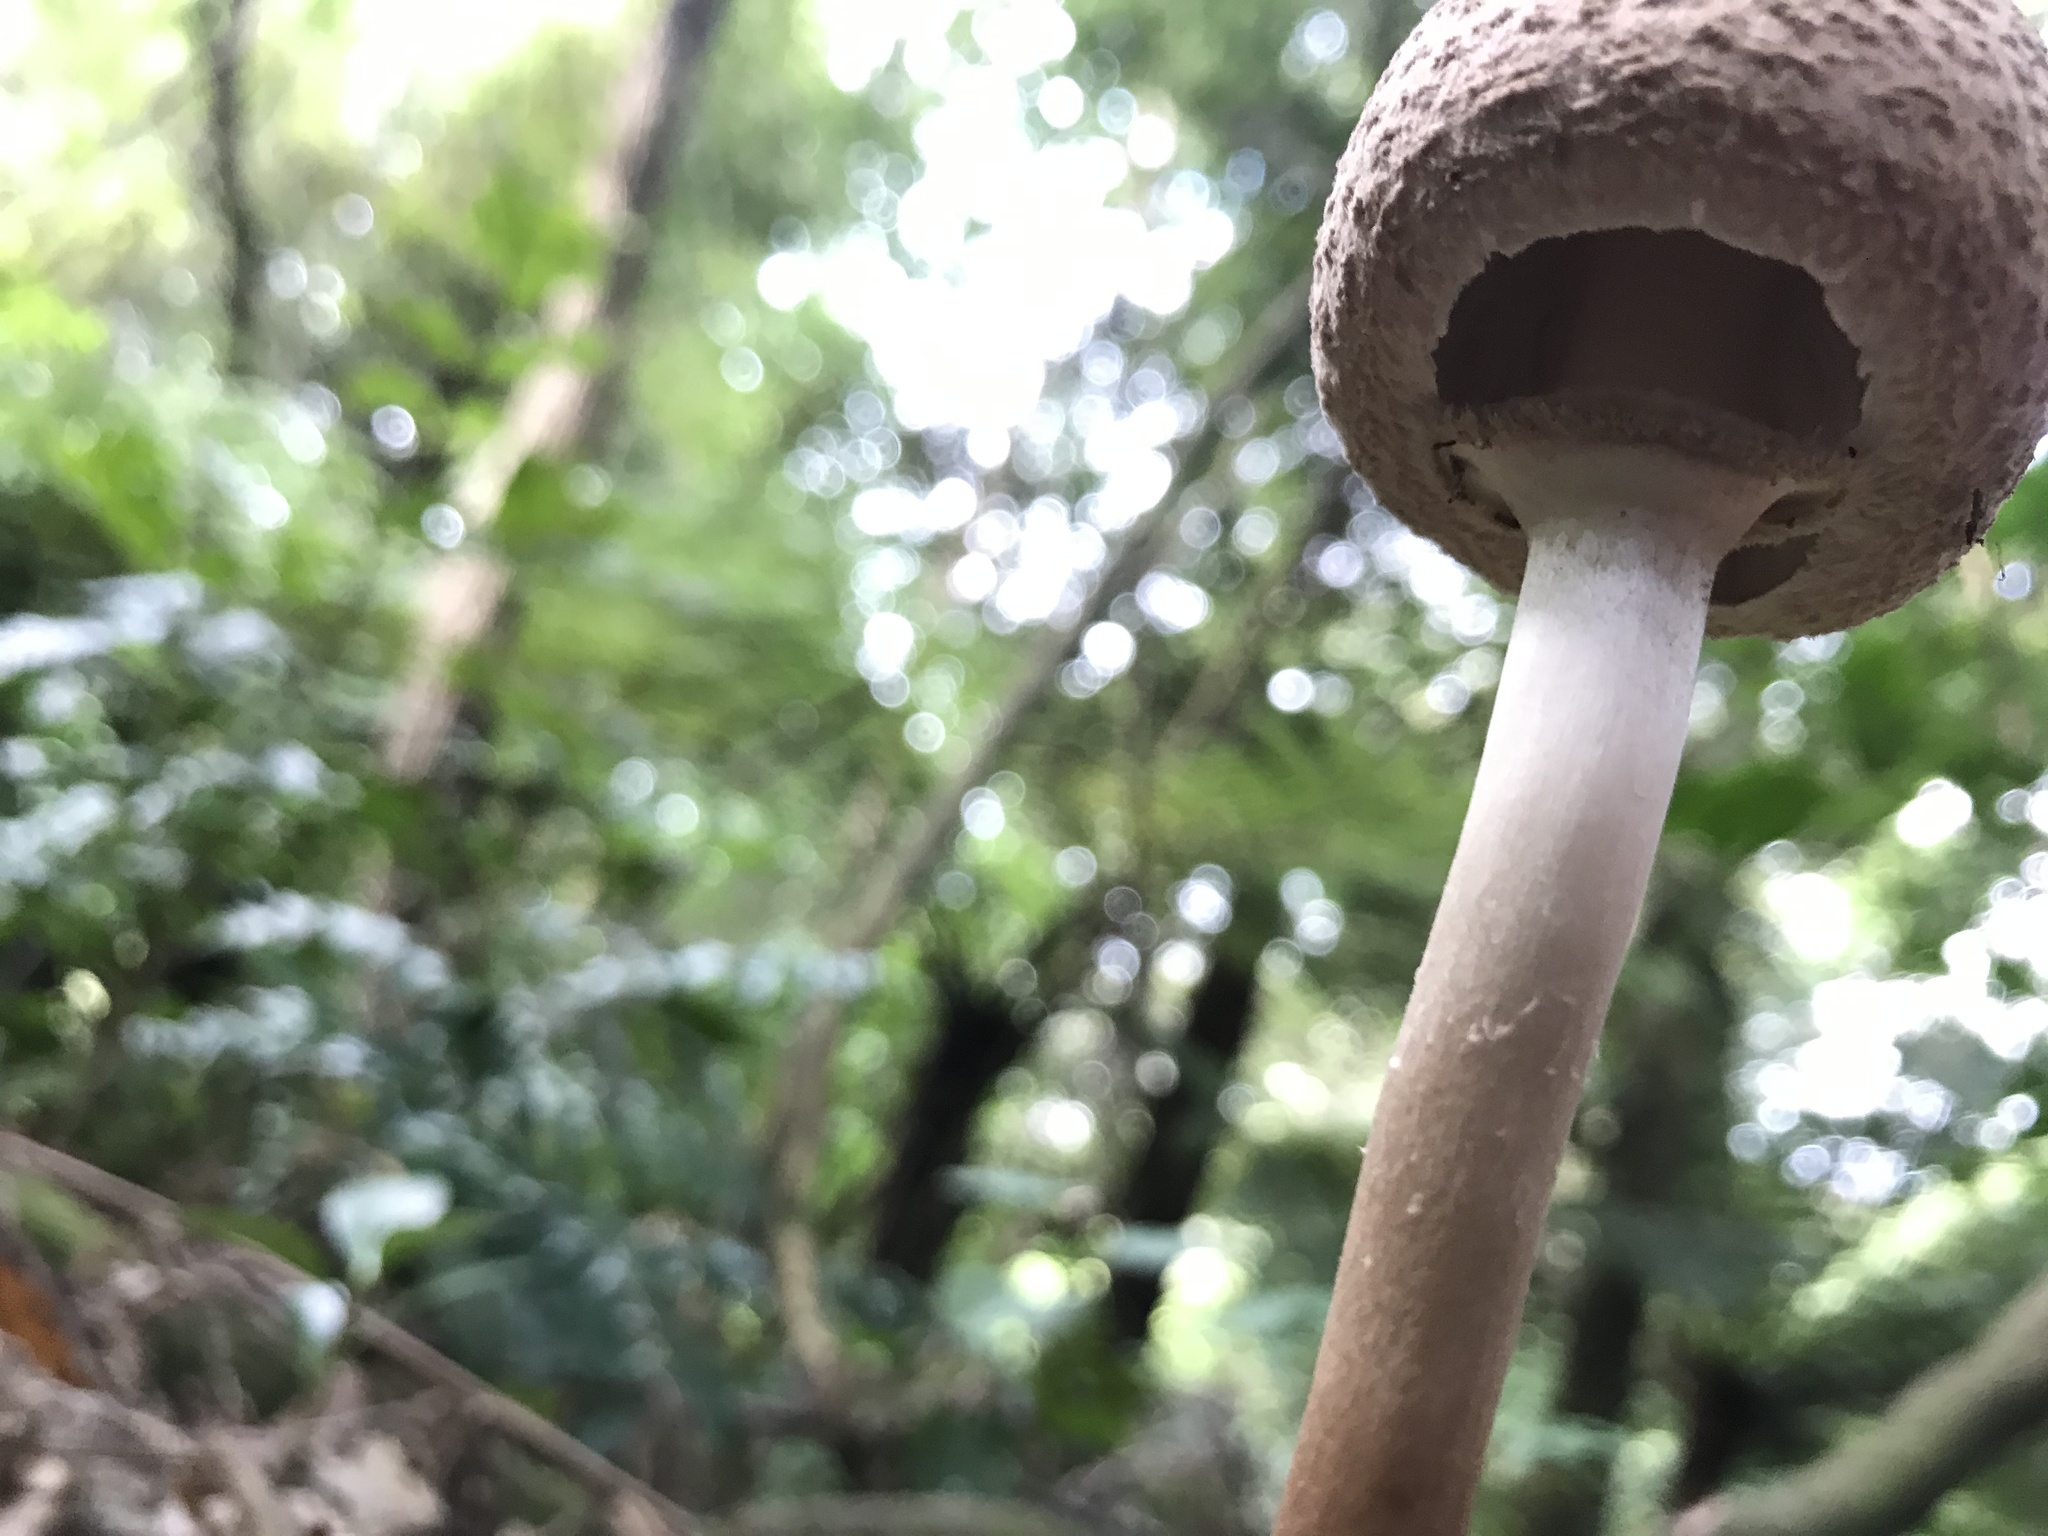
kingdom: Fungi
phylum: Basidiomycota
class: Agaricomycetes
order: Agaricales
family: Agaricaceae
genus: Macrolepiota
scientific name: Macrolepiota clelandii
